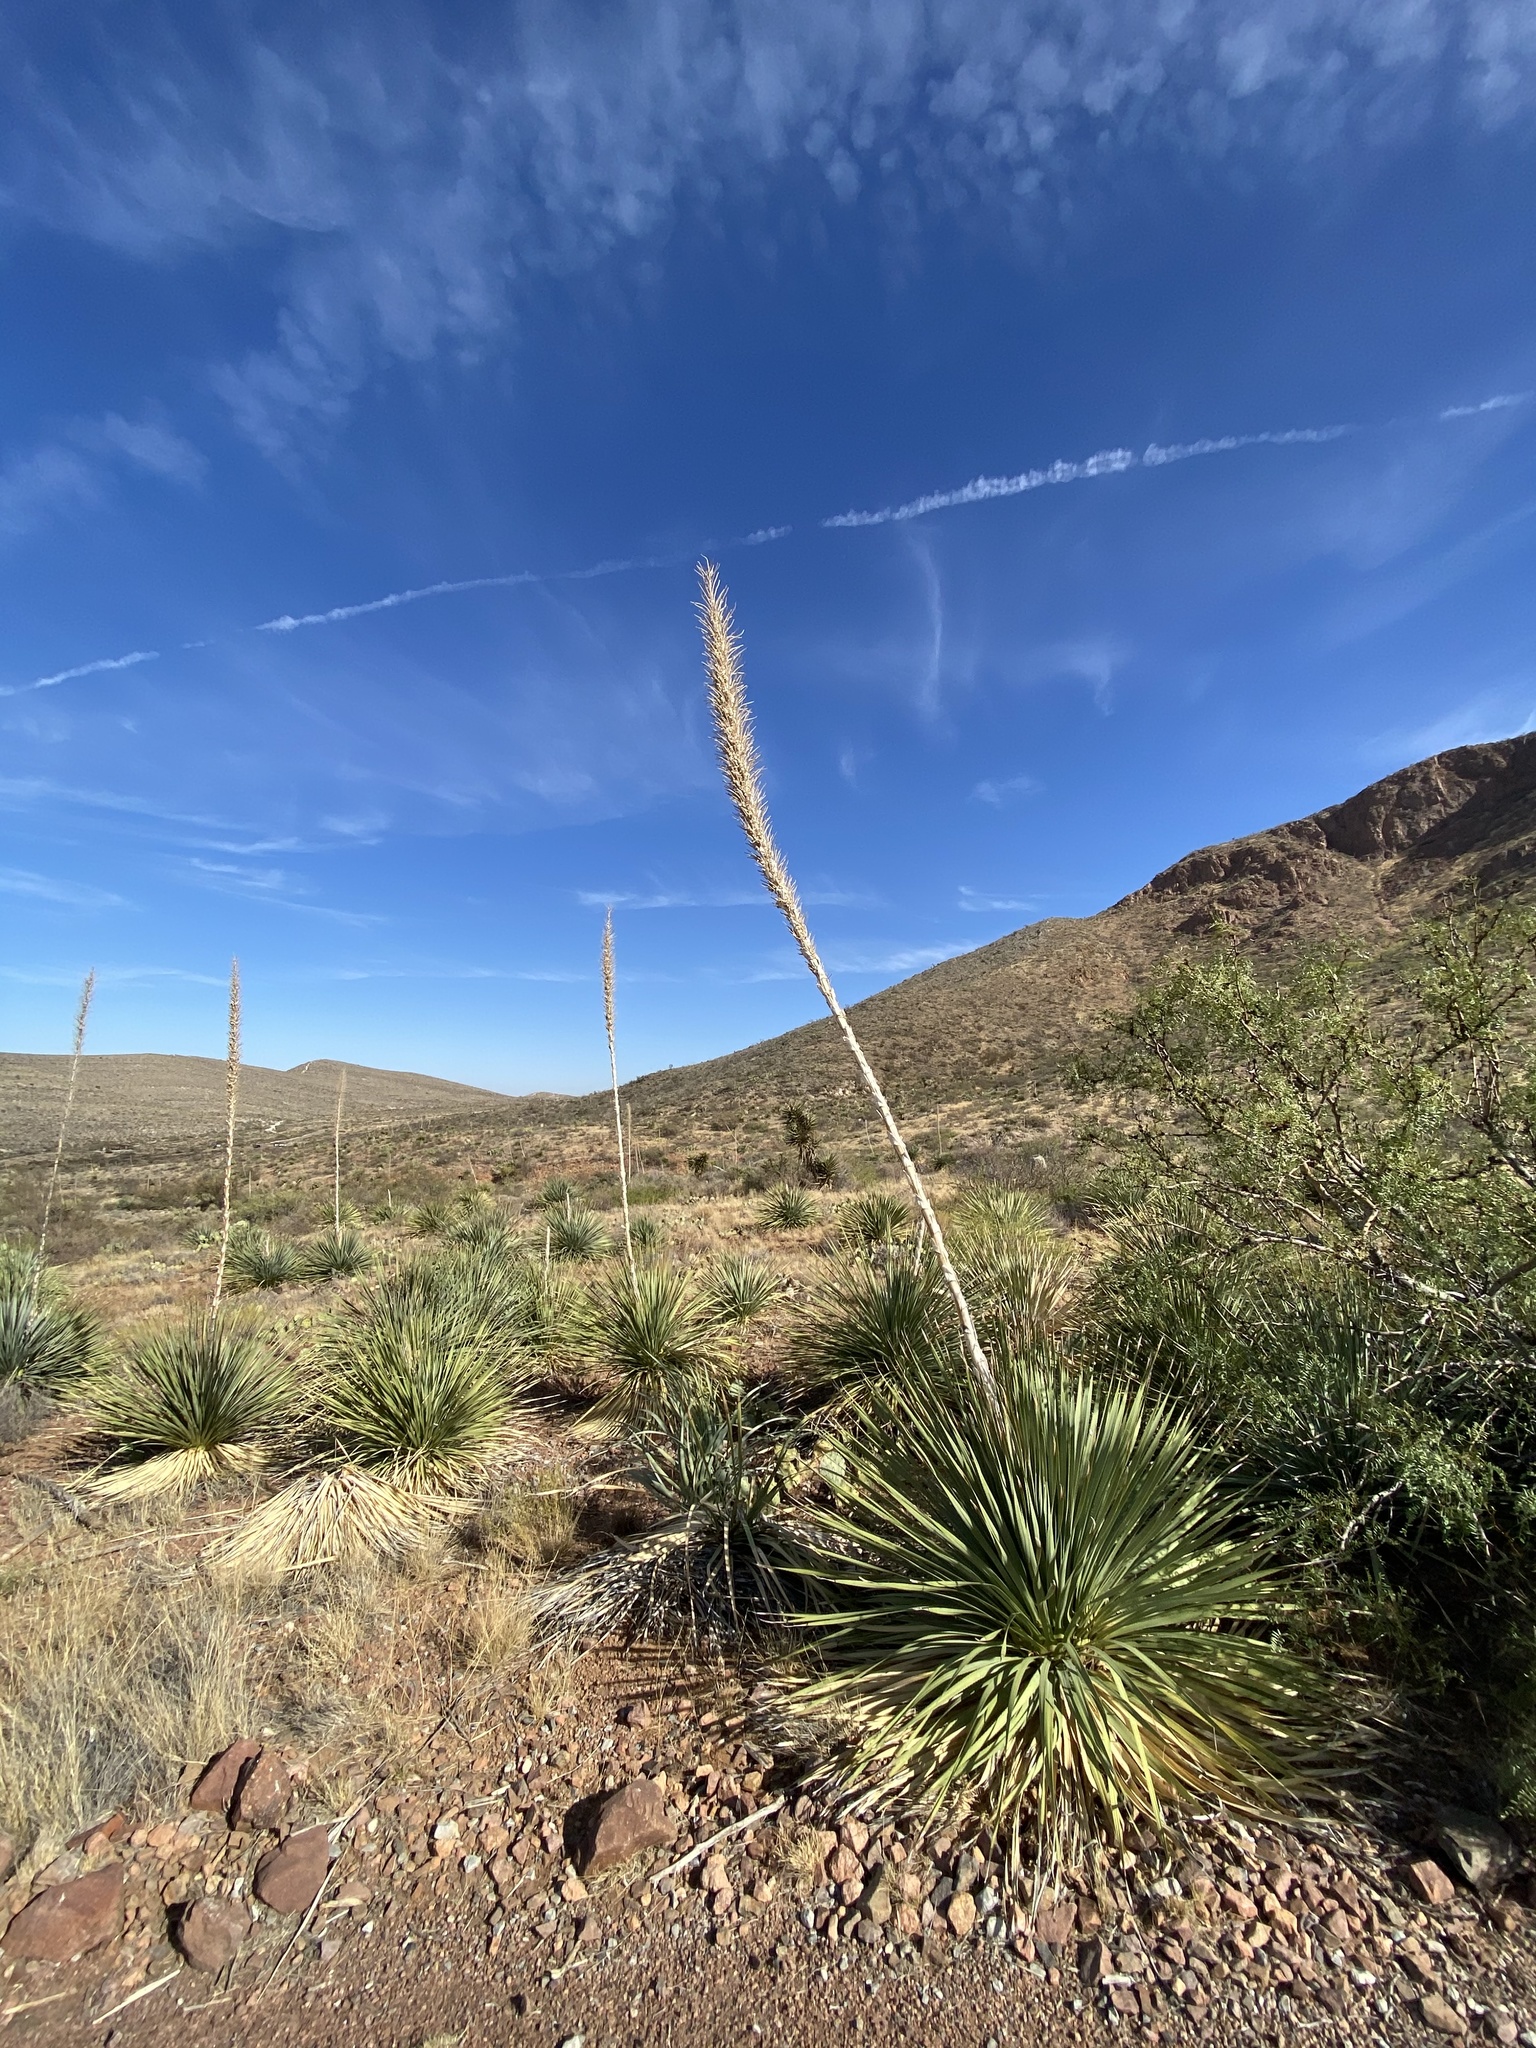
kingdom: Plantae
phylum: Tracheophyta
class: Liliopsida
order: Asparagales
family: Asparagaceae
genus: Dasylirion
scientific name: Dasylirion wheeleri
